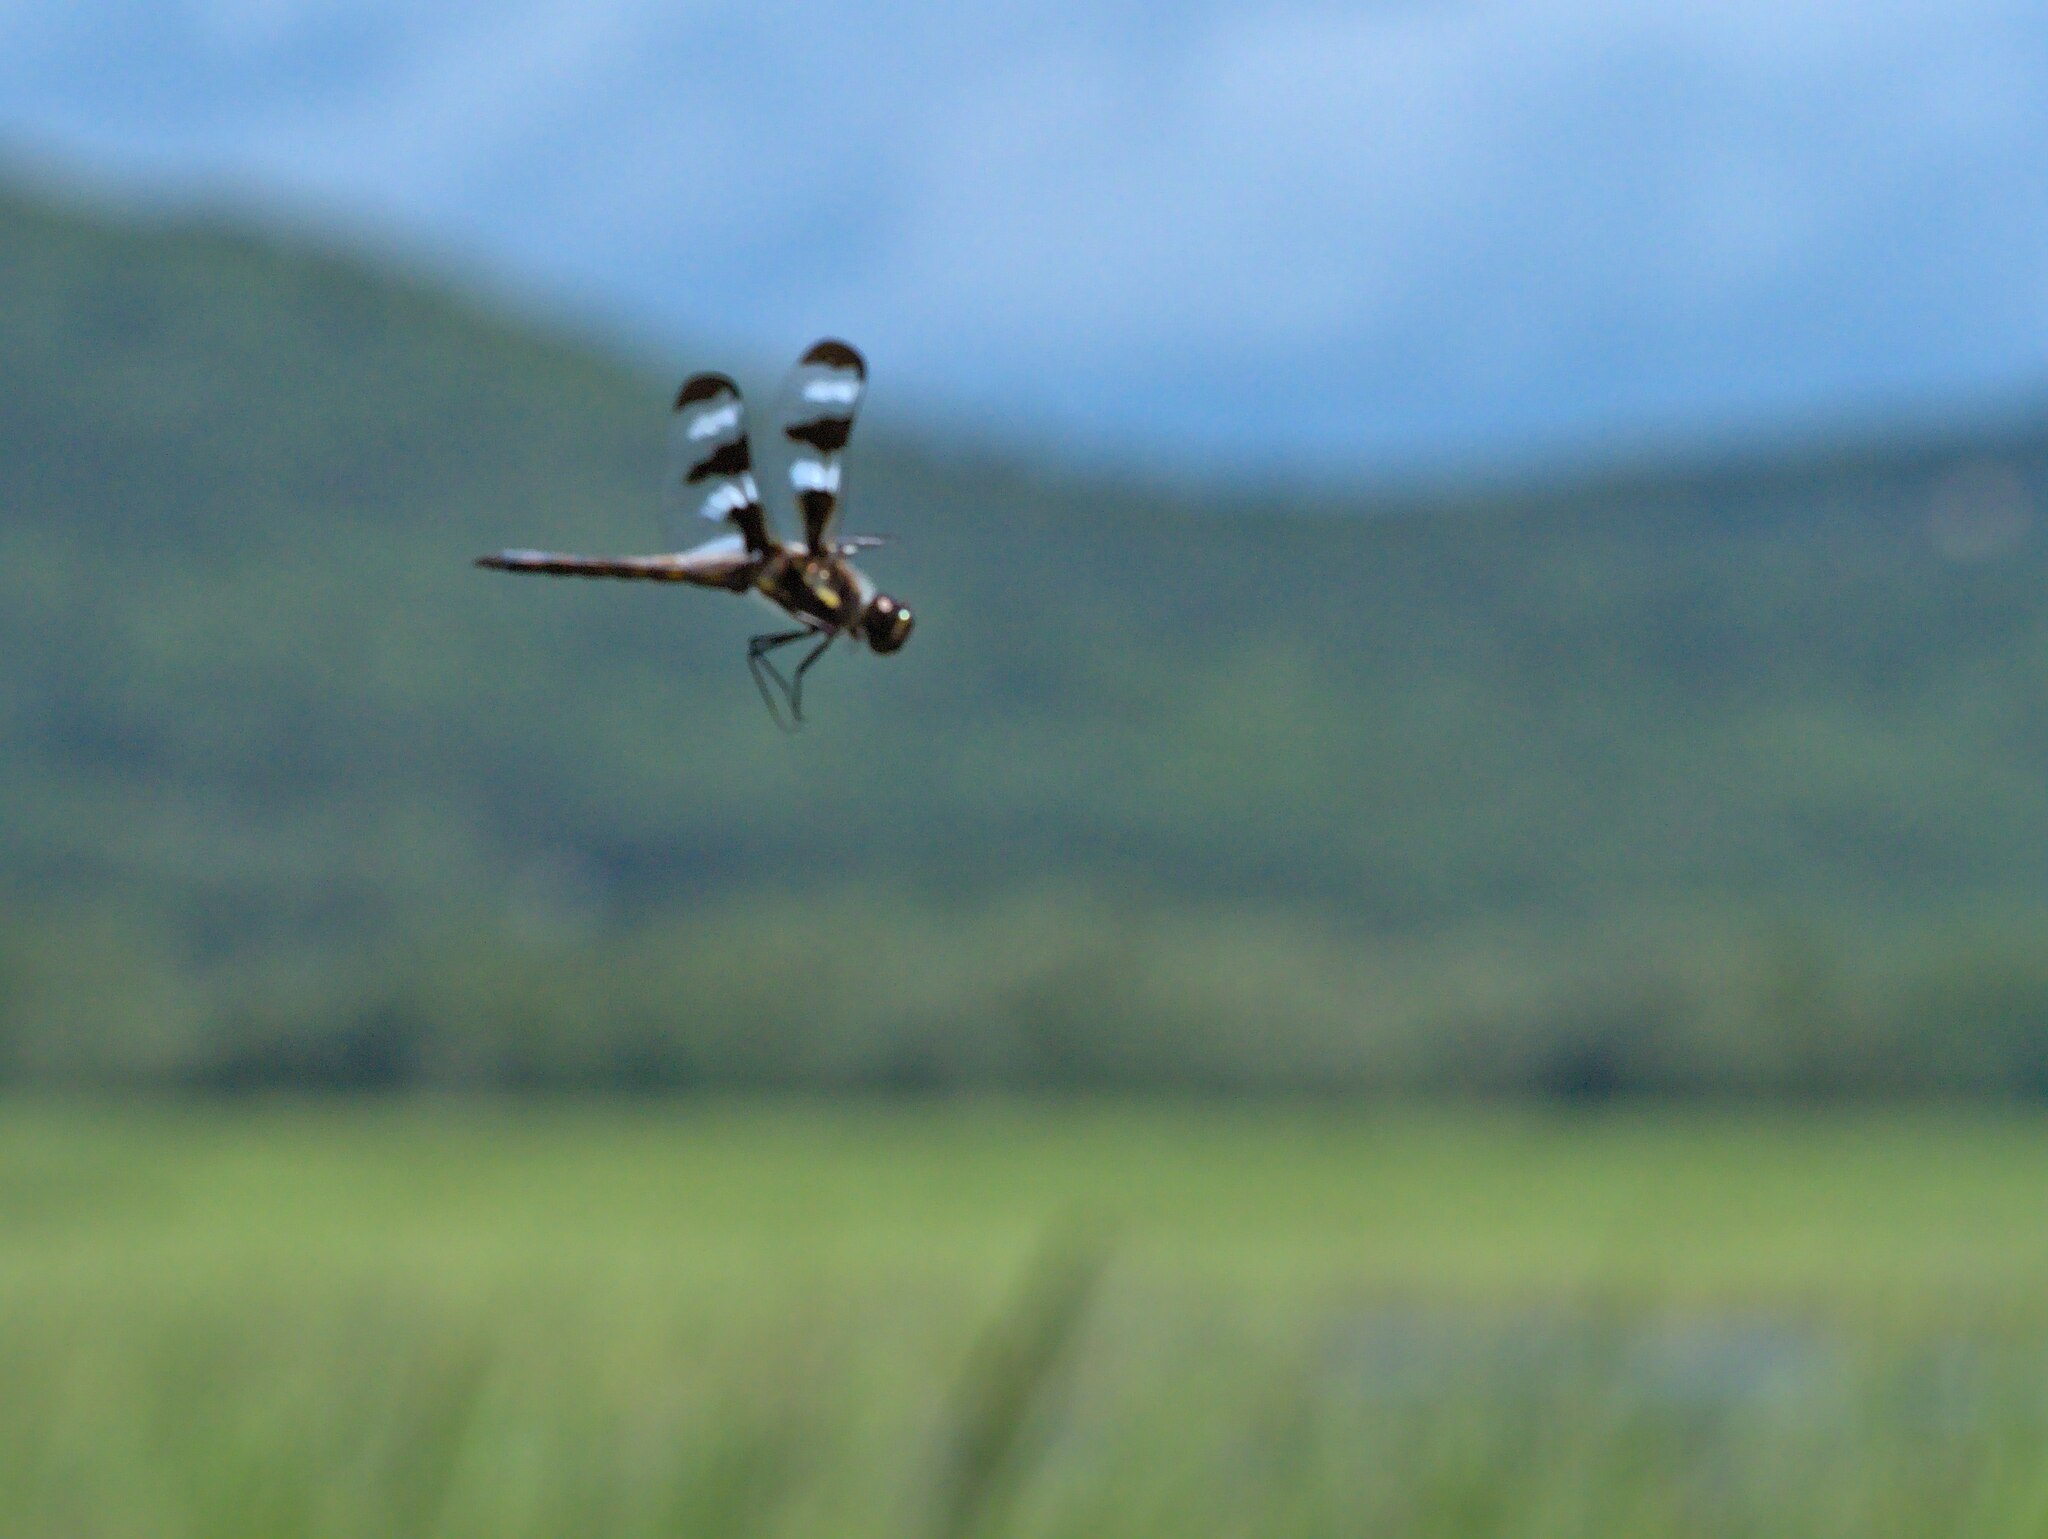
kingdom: Animalia
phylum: Arthropoda
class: Insecta
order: Odonata
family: Libellulidae
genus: Libellula
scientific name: Libellula pulchella
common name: Twelve-spotted skimmer
